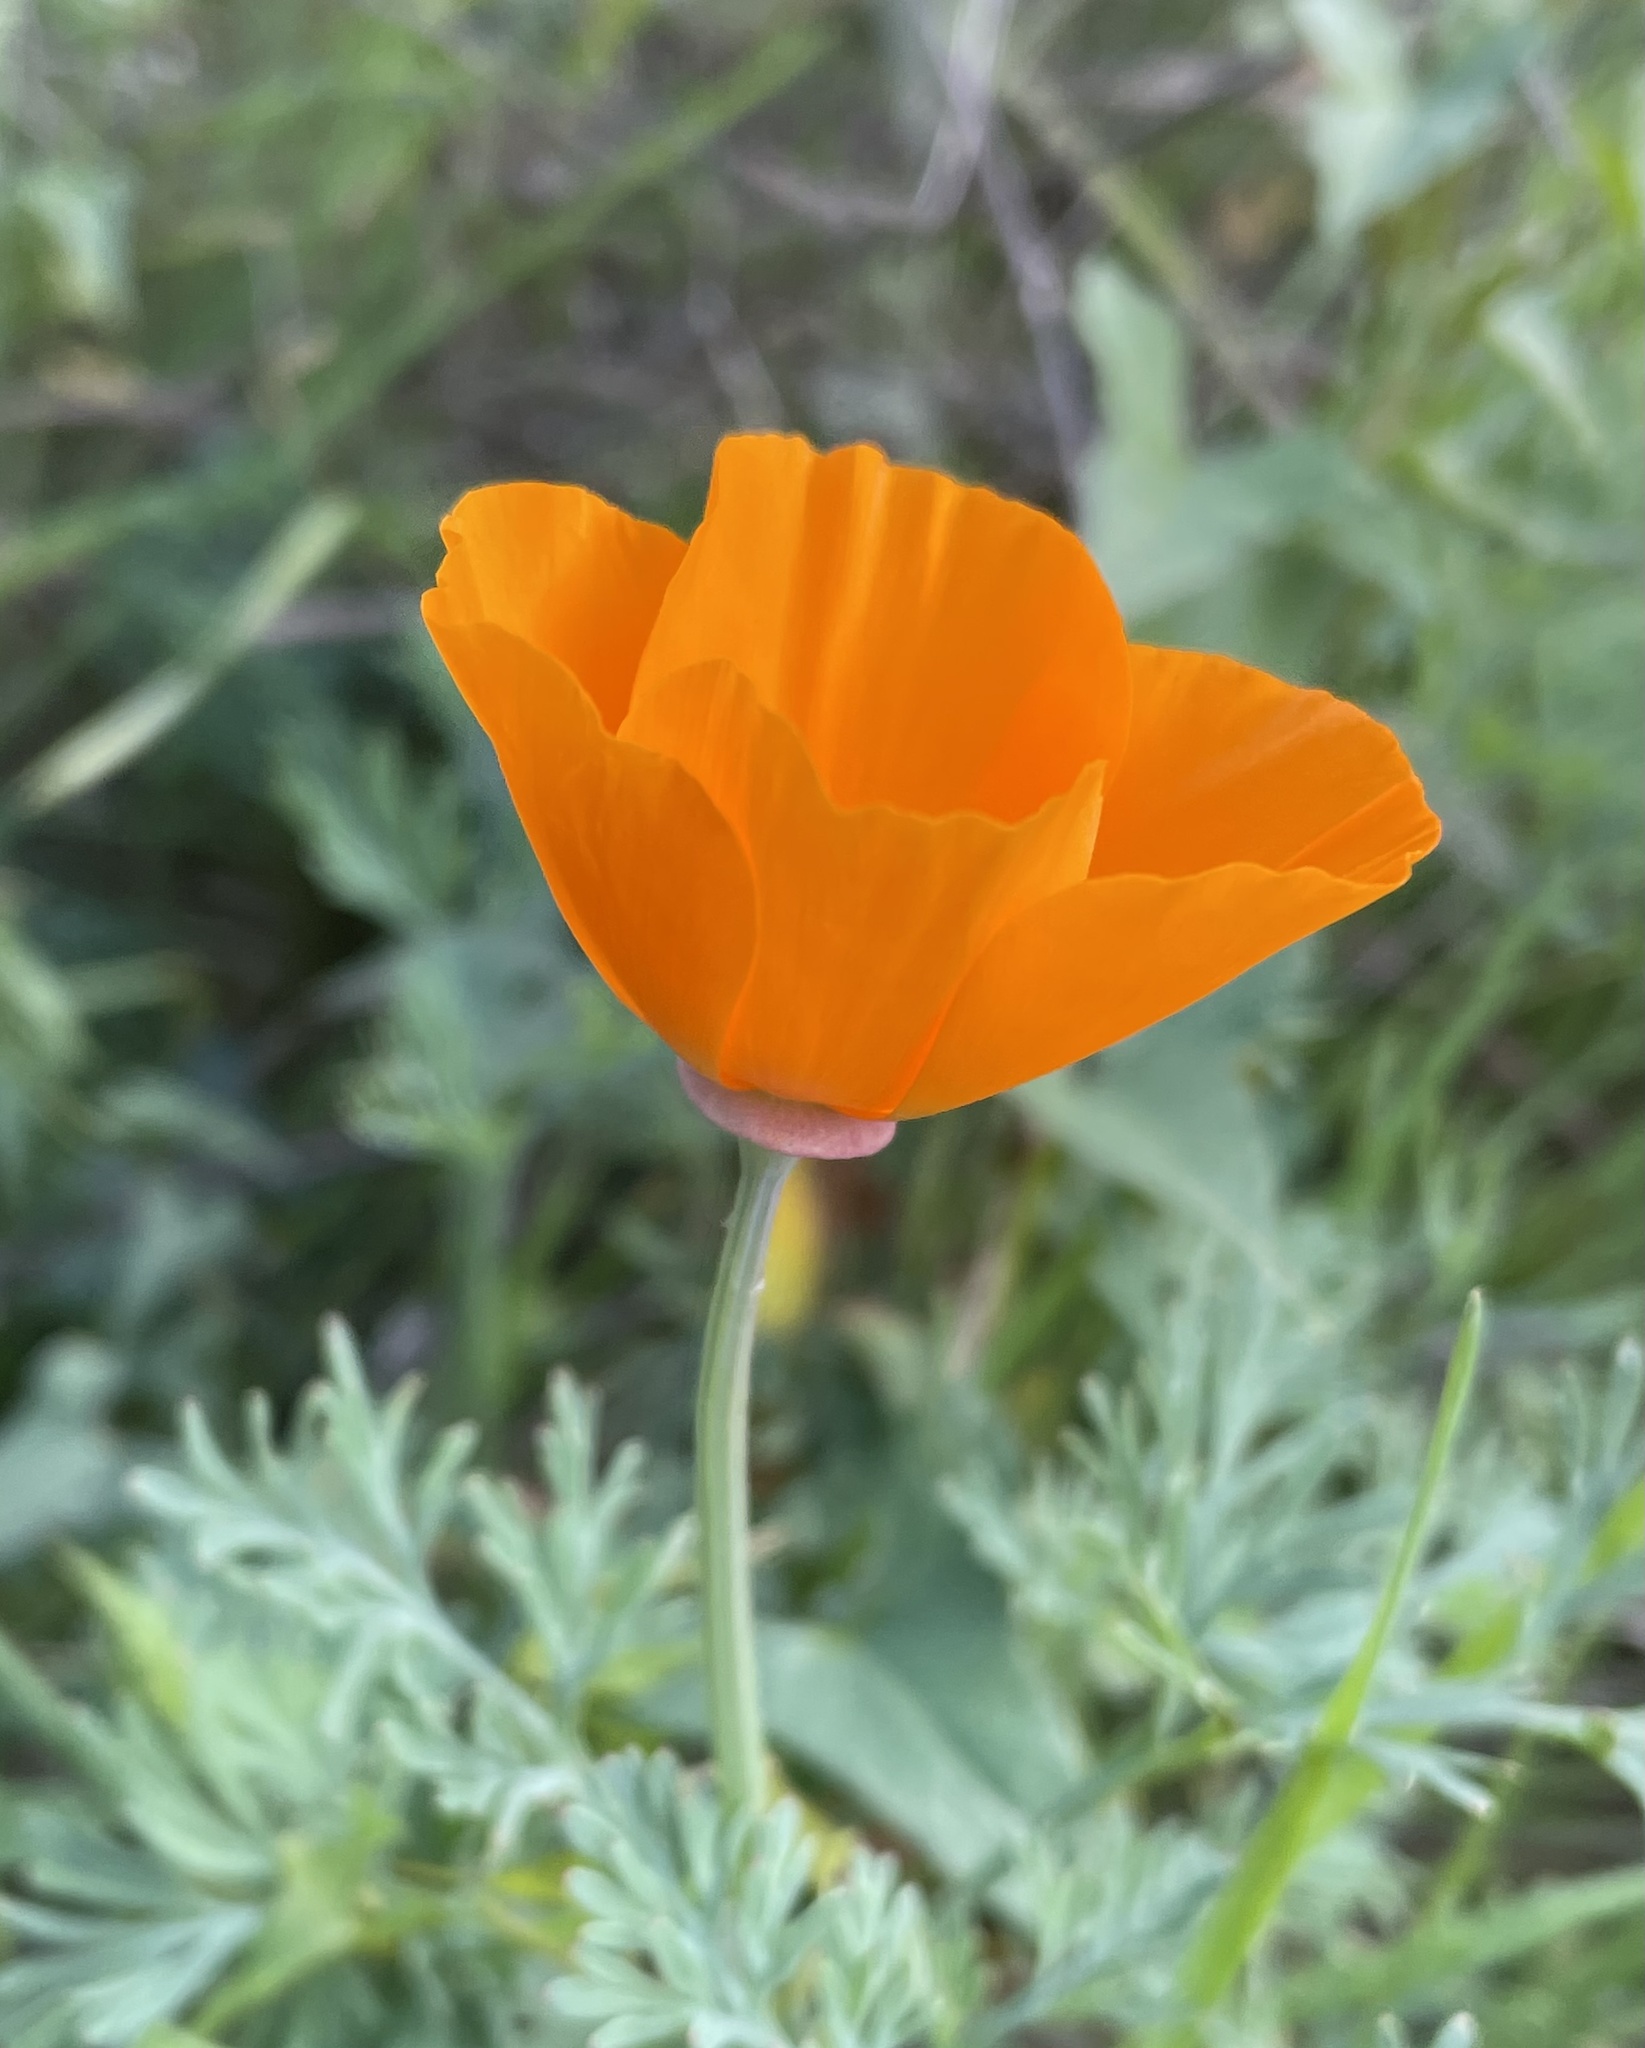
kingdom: Plantae
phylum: Tracheophyta
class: Magnoliopsida
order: Ranunculales
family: Papaveraceae
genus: Eschscholzia
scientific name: Eschscholzia californica
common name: California poppy
